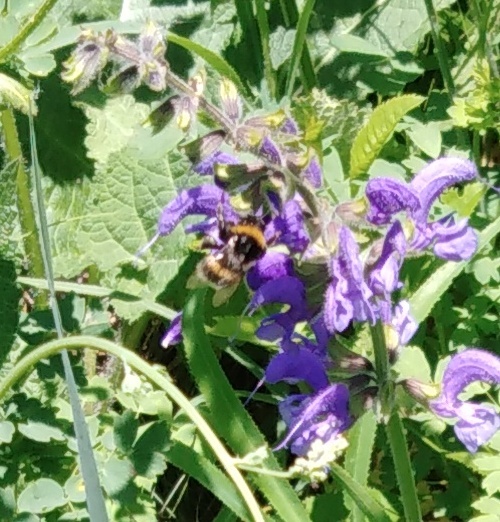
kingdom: Animalia
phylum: Arthropoda
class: Insecta
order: Hymenoptera
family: Apidae
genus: Bombus
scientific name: Bombus
